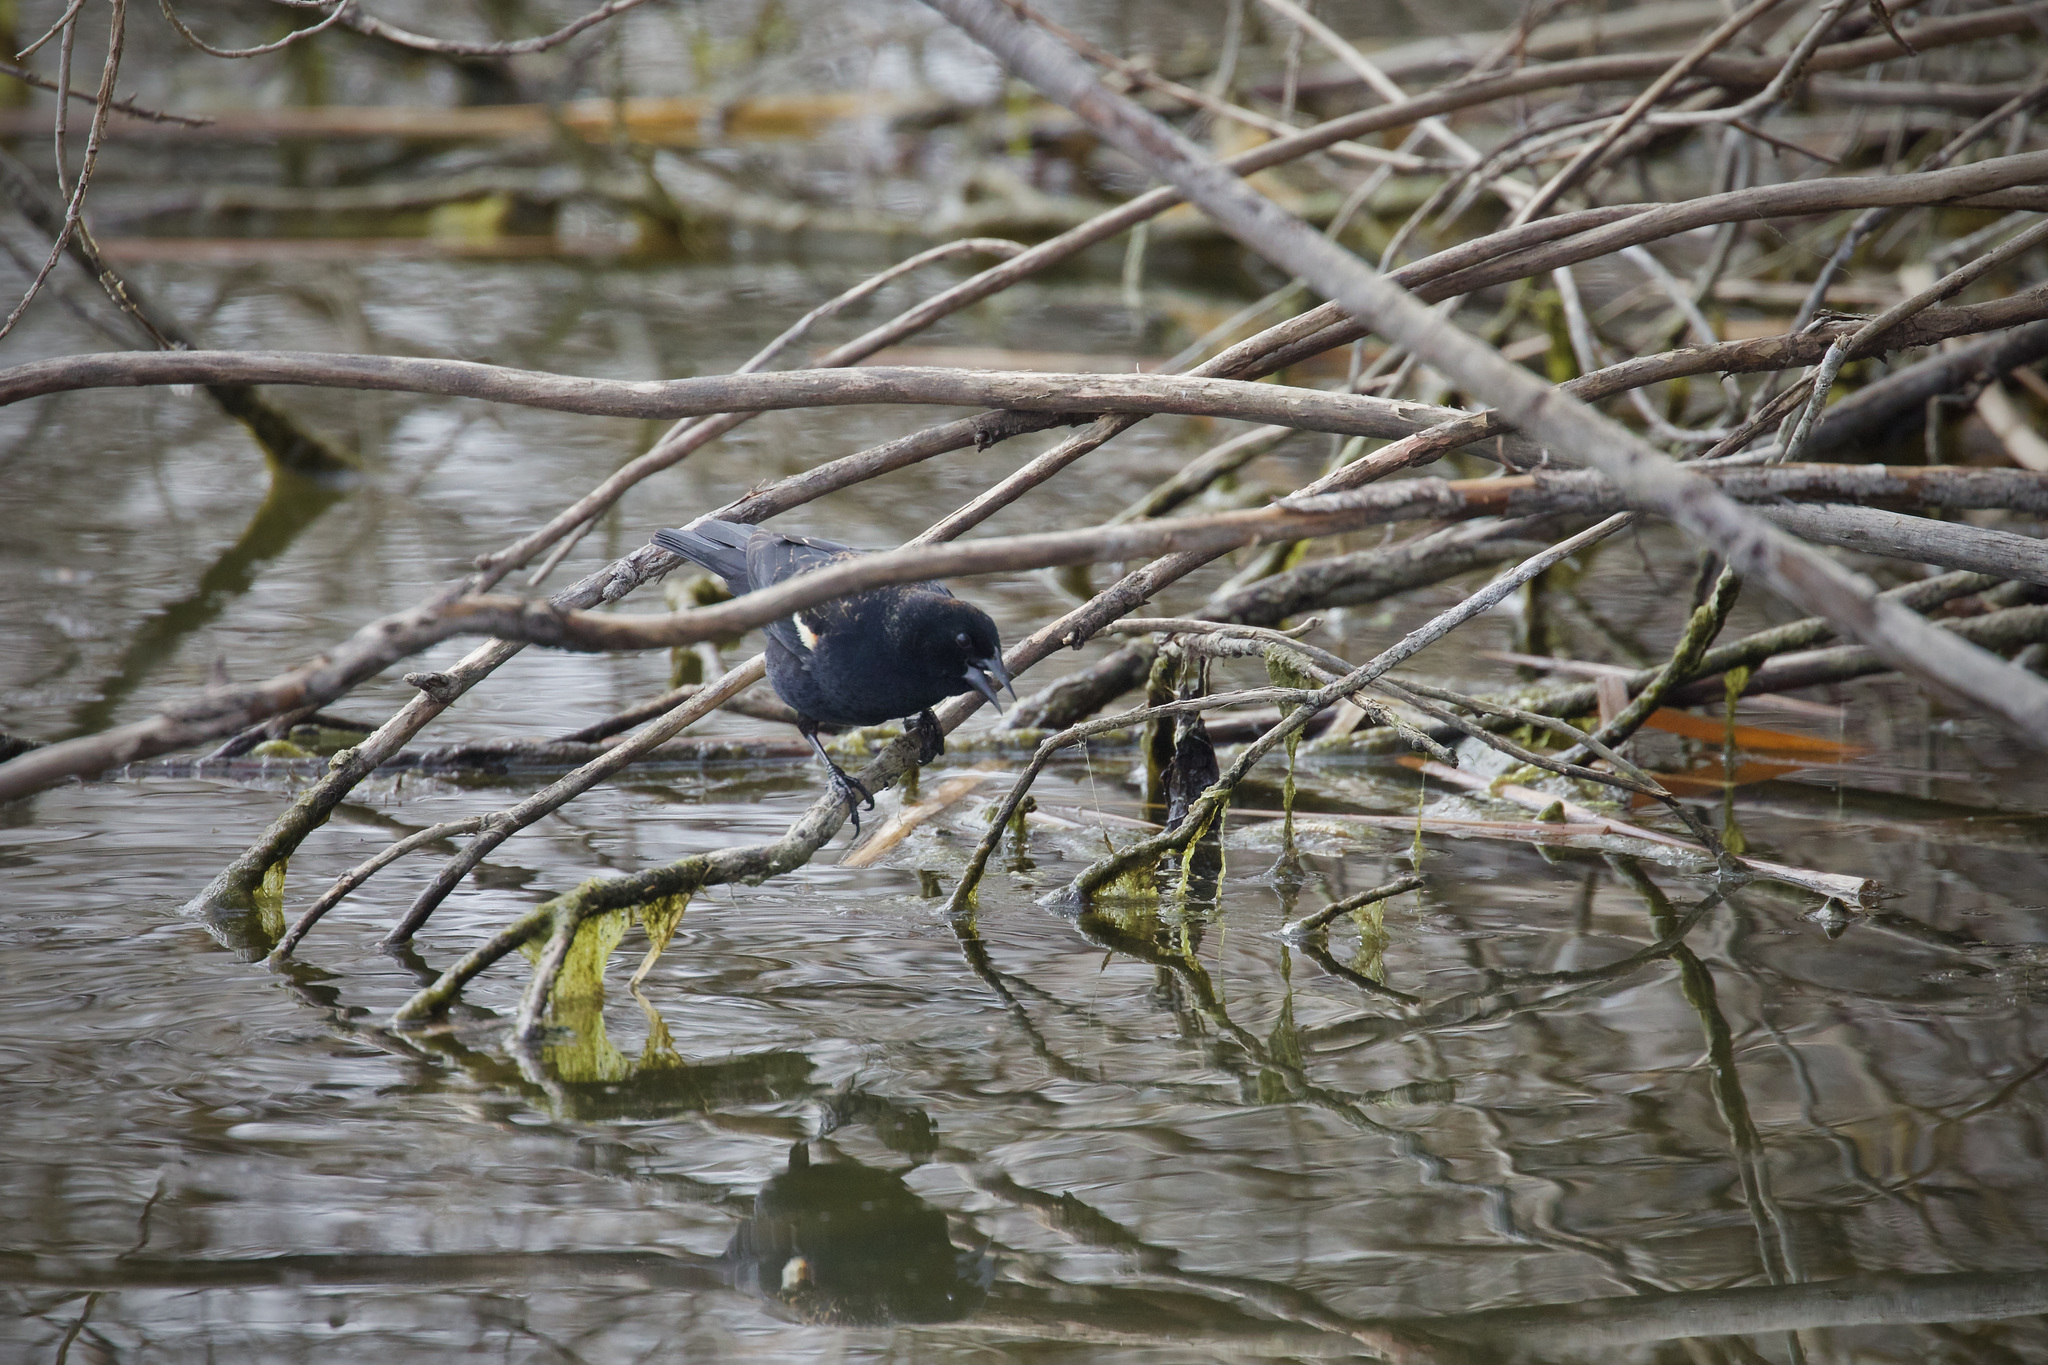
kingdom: Animalia
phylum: Chordata
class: Aves
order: Passeriformes
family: Icteridae
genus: Agelaius
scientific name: Agelaius phoeniceus
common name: Red-winged blackbird
